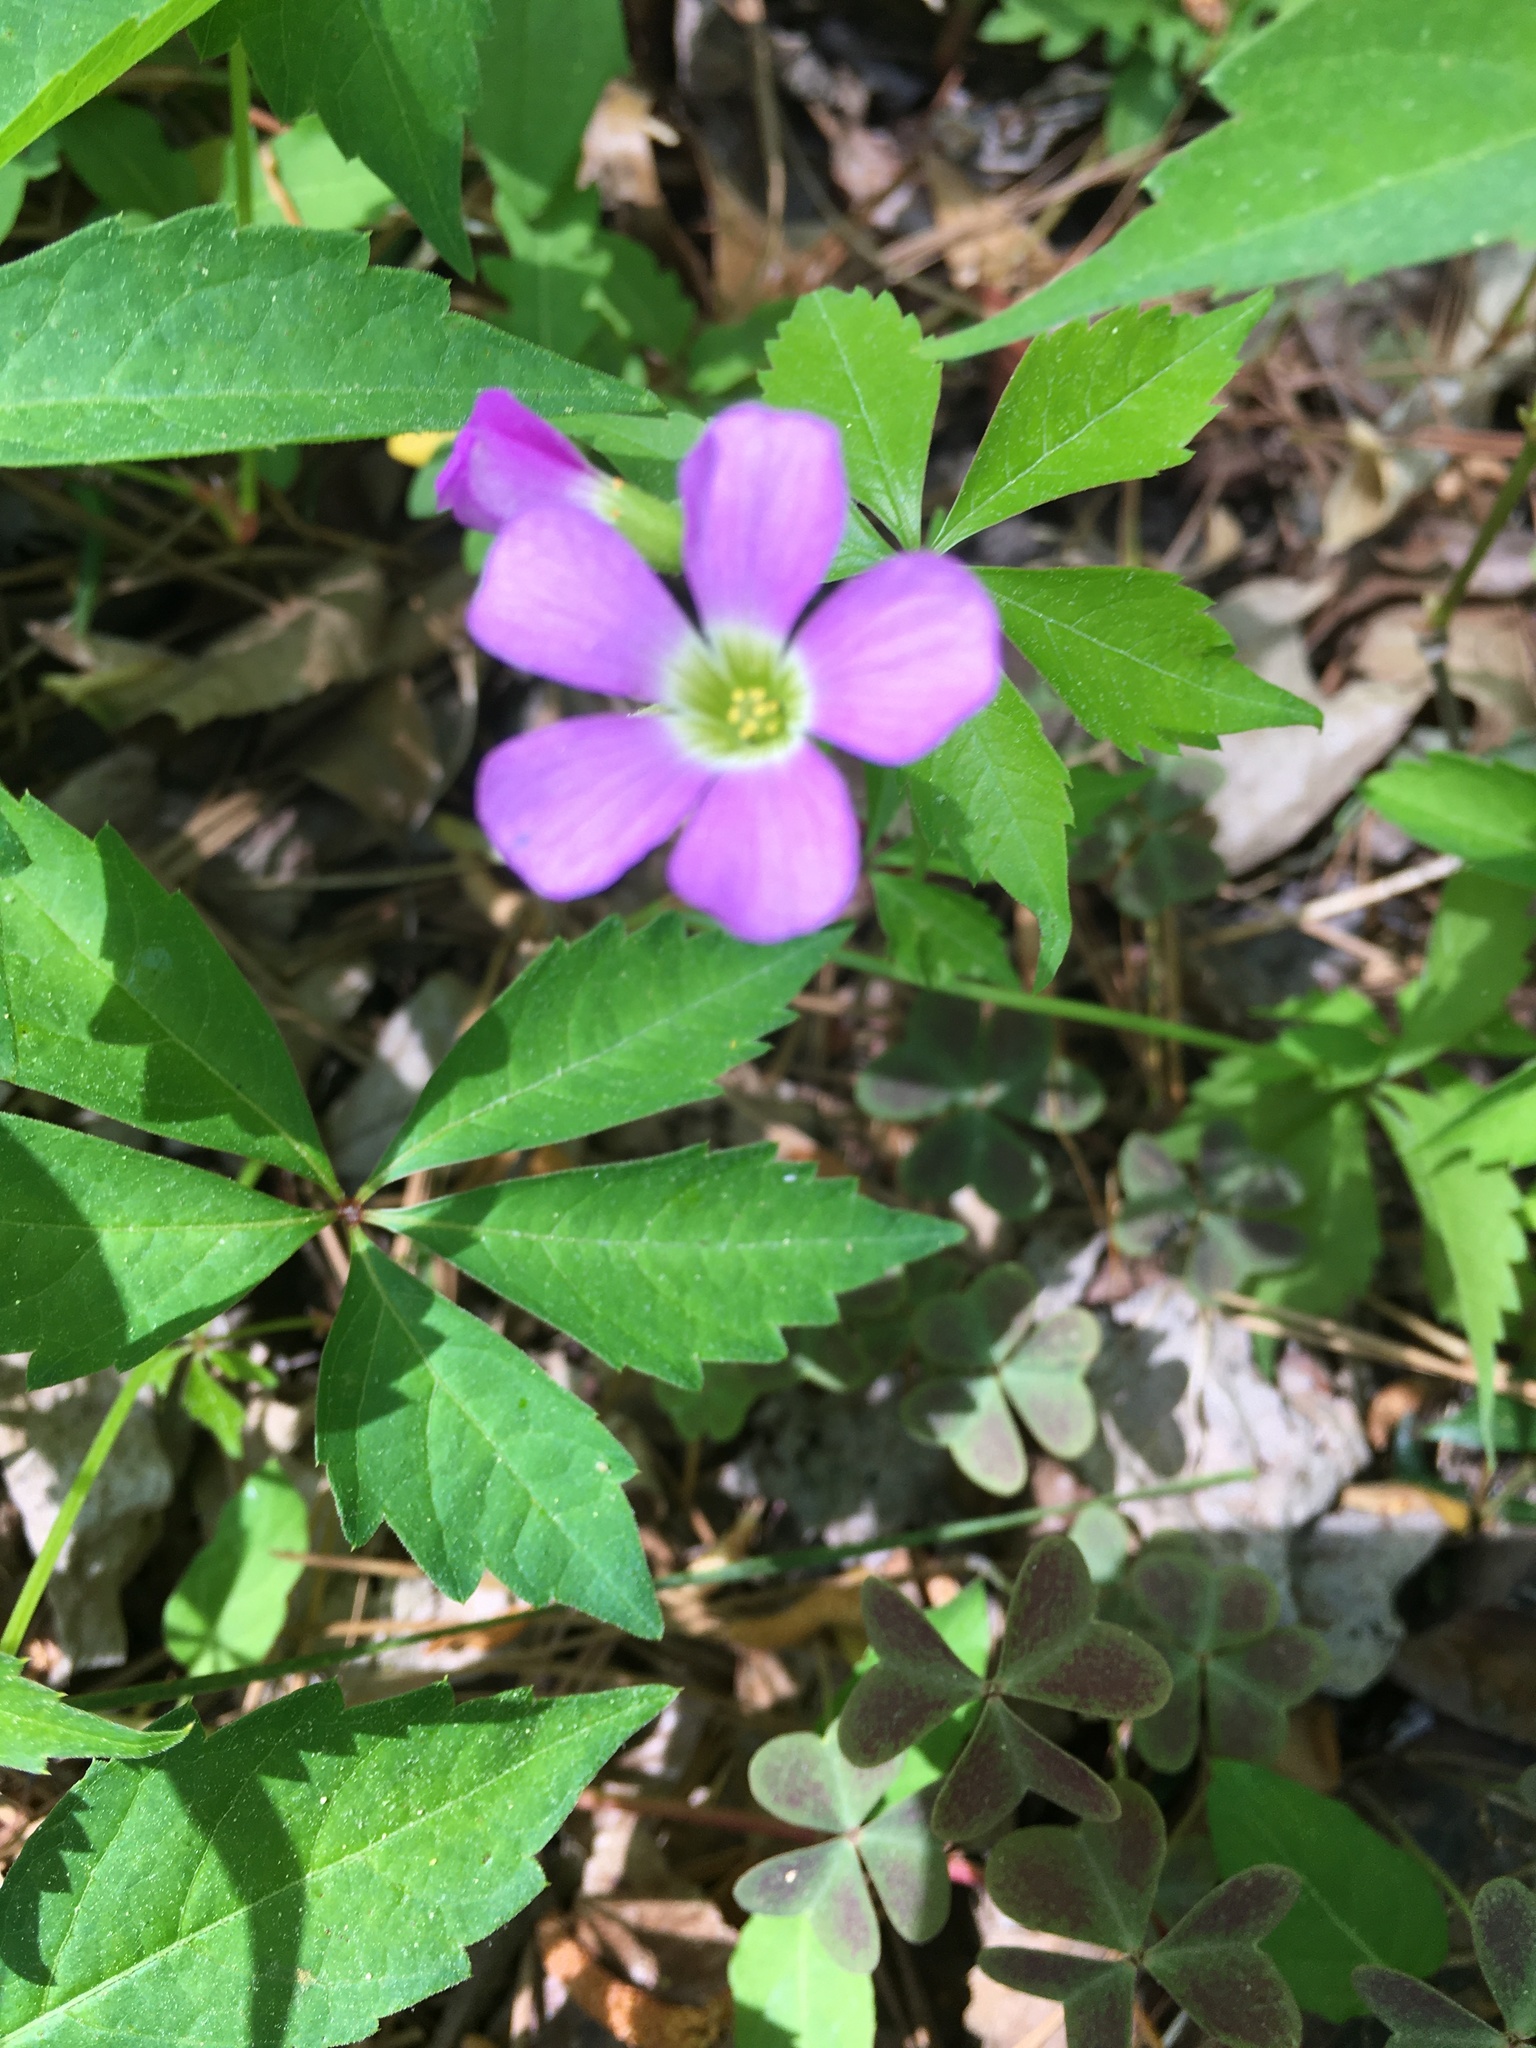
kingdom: Plantae
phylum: Tracheophyta
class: Magnoliopsida
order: Oxalidales
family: Oxalidaceae
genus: Oxalis
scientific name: Oxalis violacea
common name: Violet wood-sorrel
